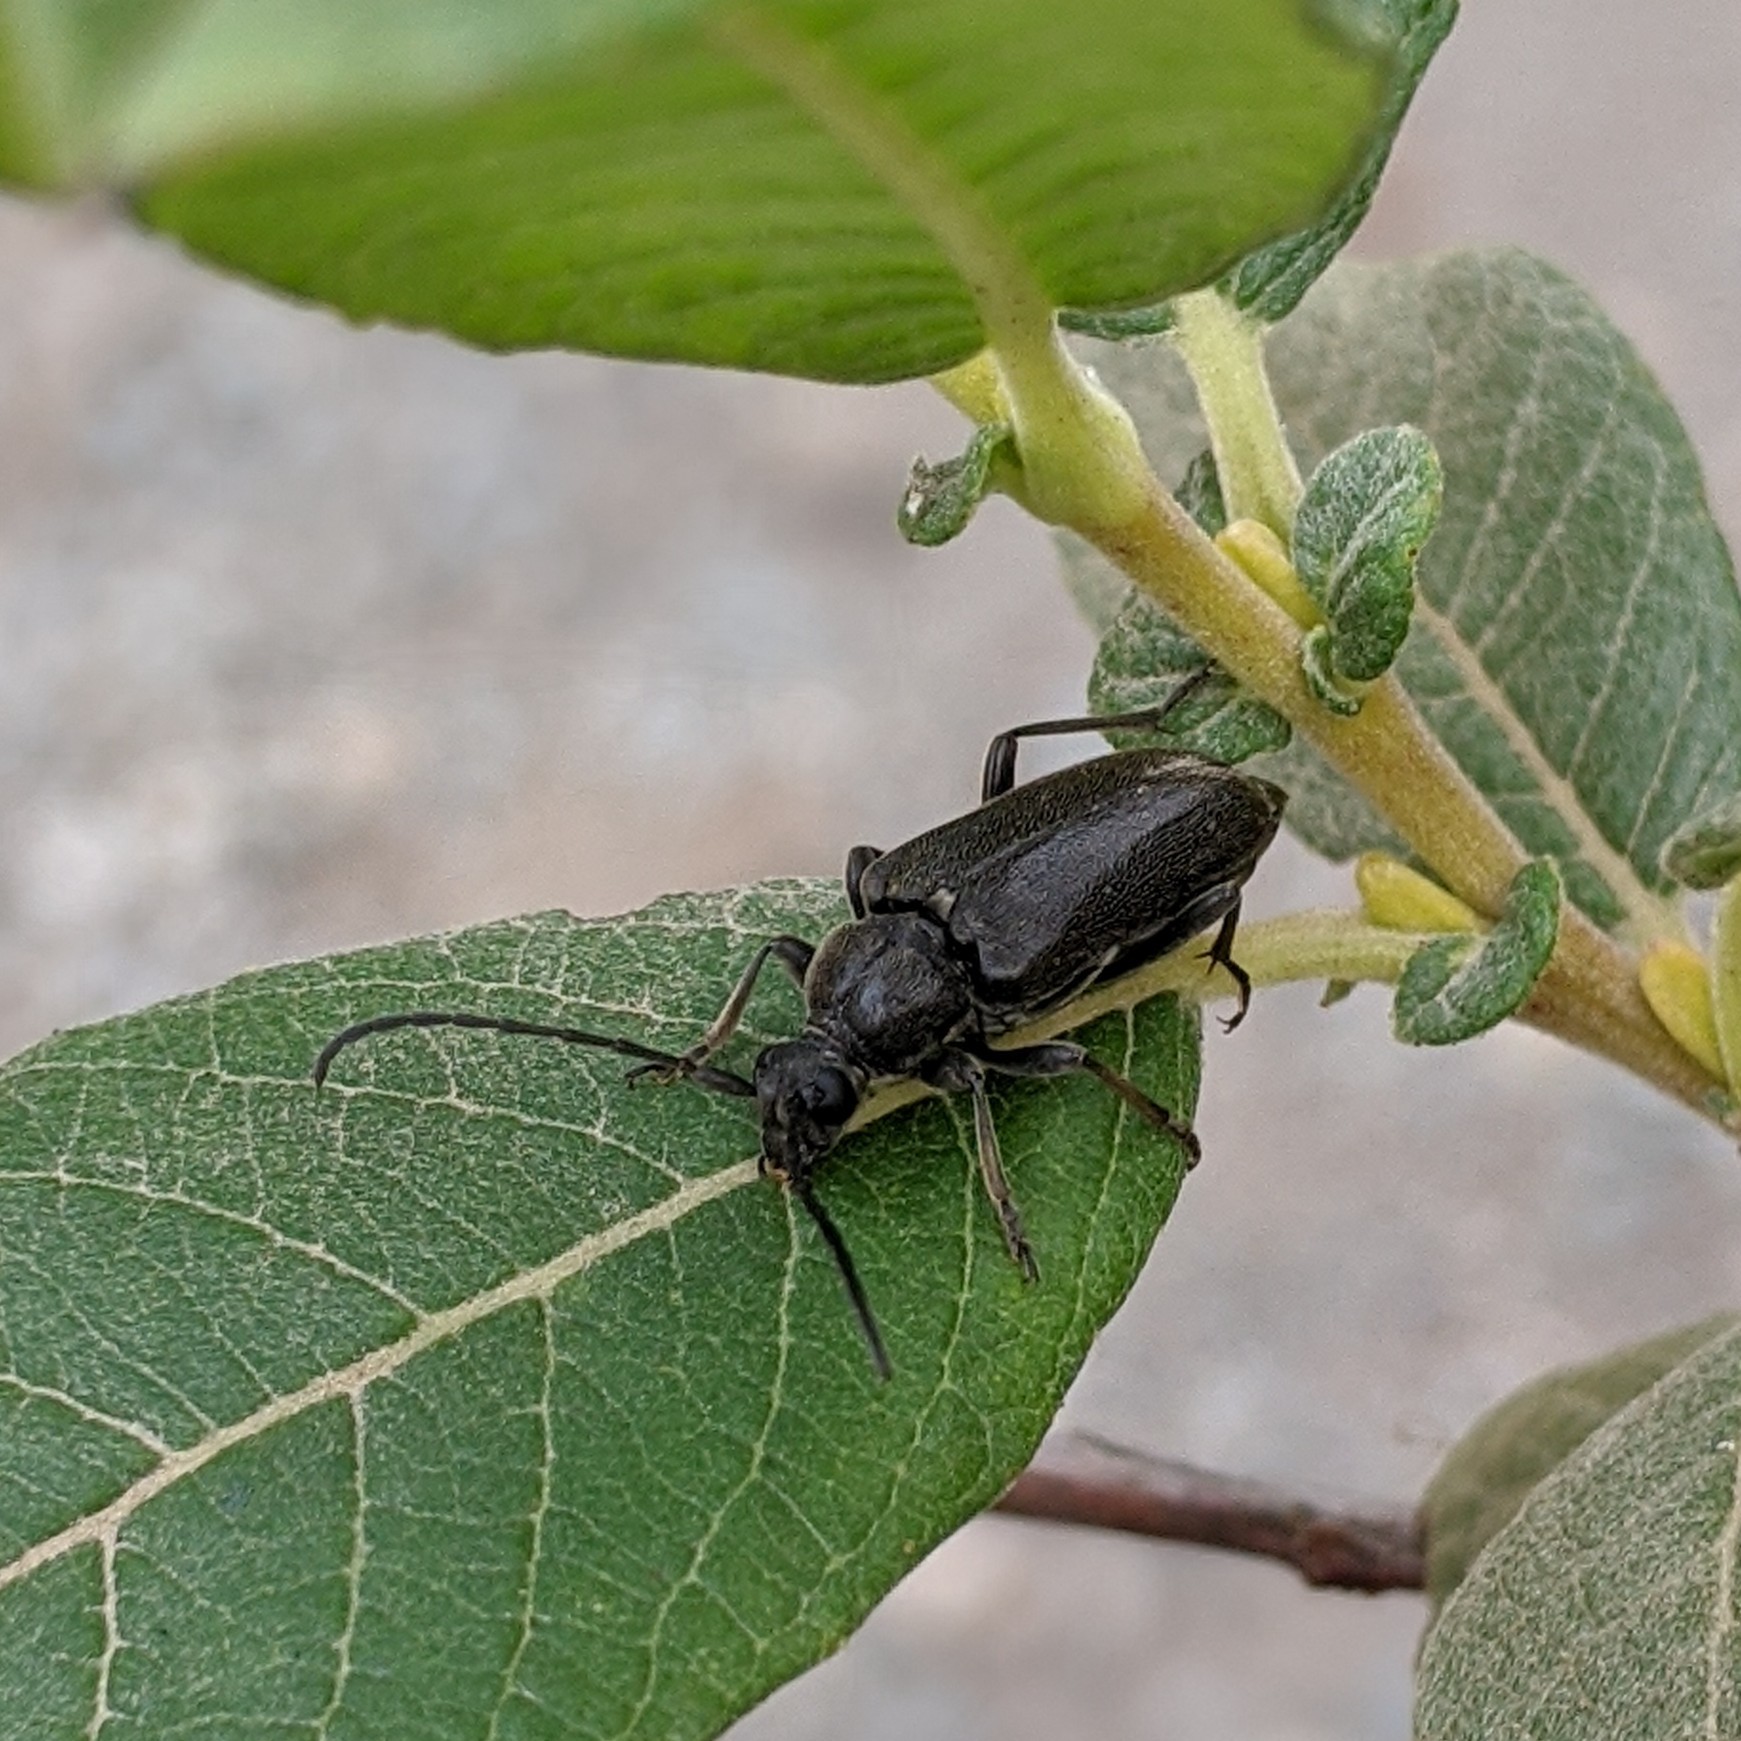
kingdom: Animalia
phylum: Arthropoda
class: Insecta
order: Coleoptera
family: Cerambycidae
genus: Lepturopsis
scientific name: Lepturopsis dolorosa
